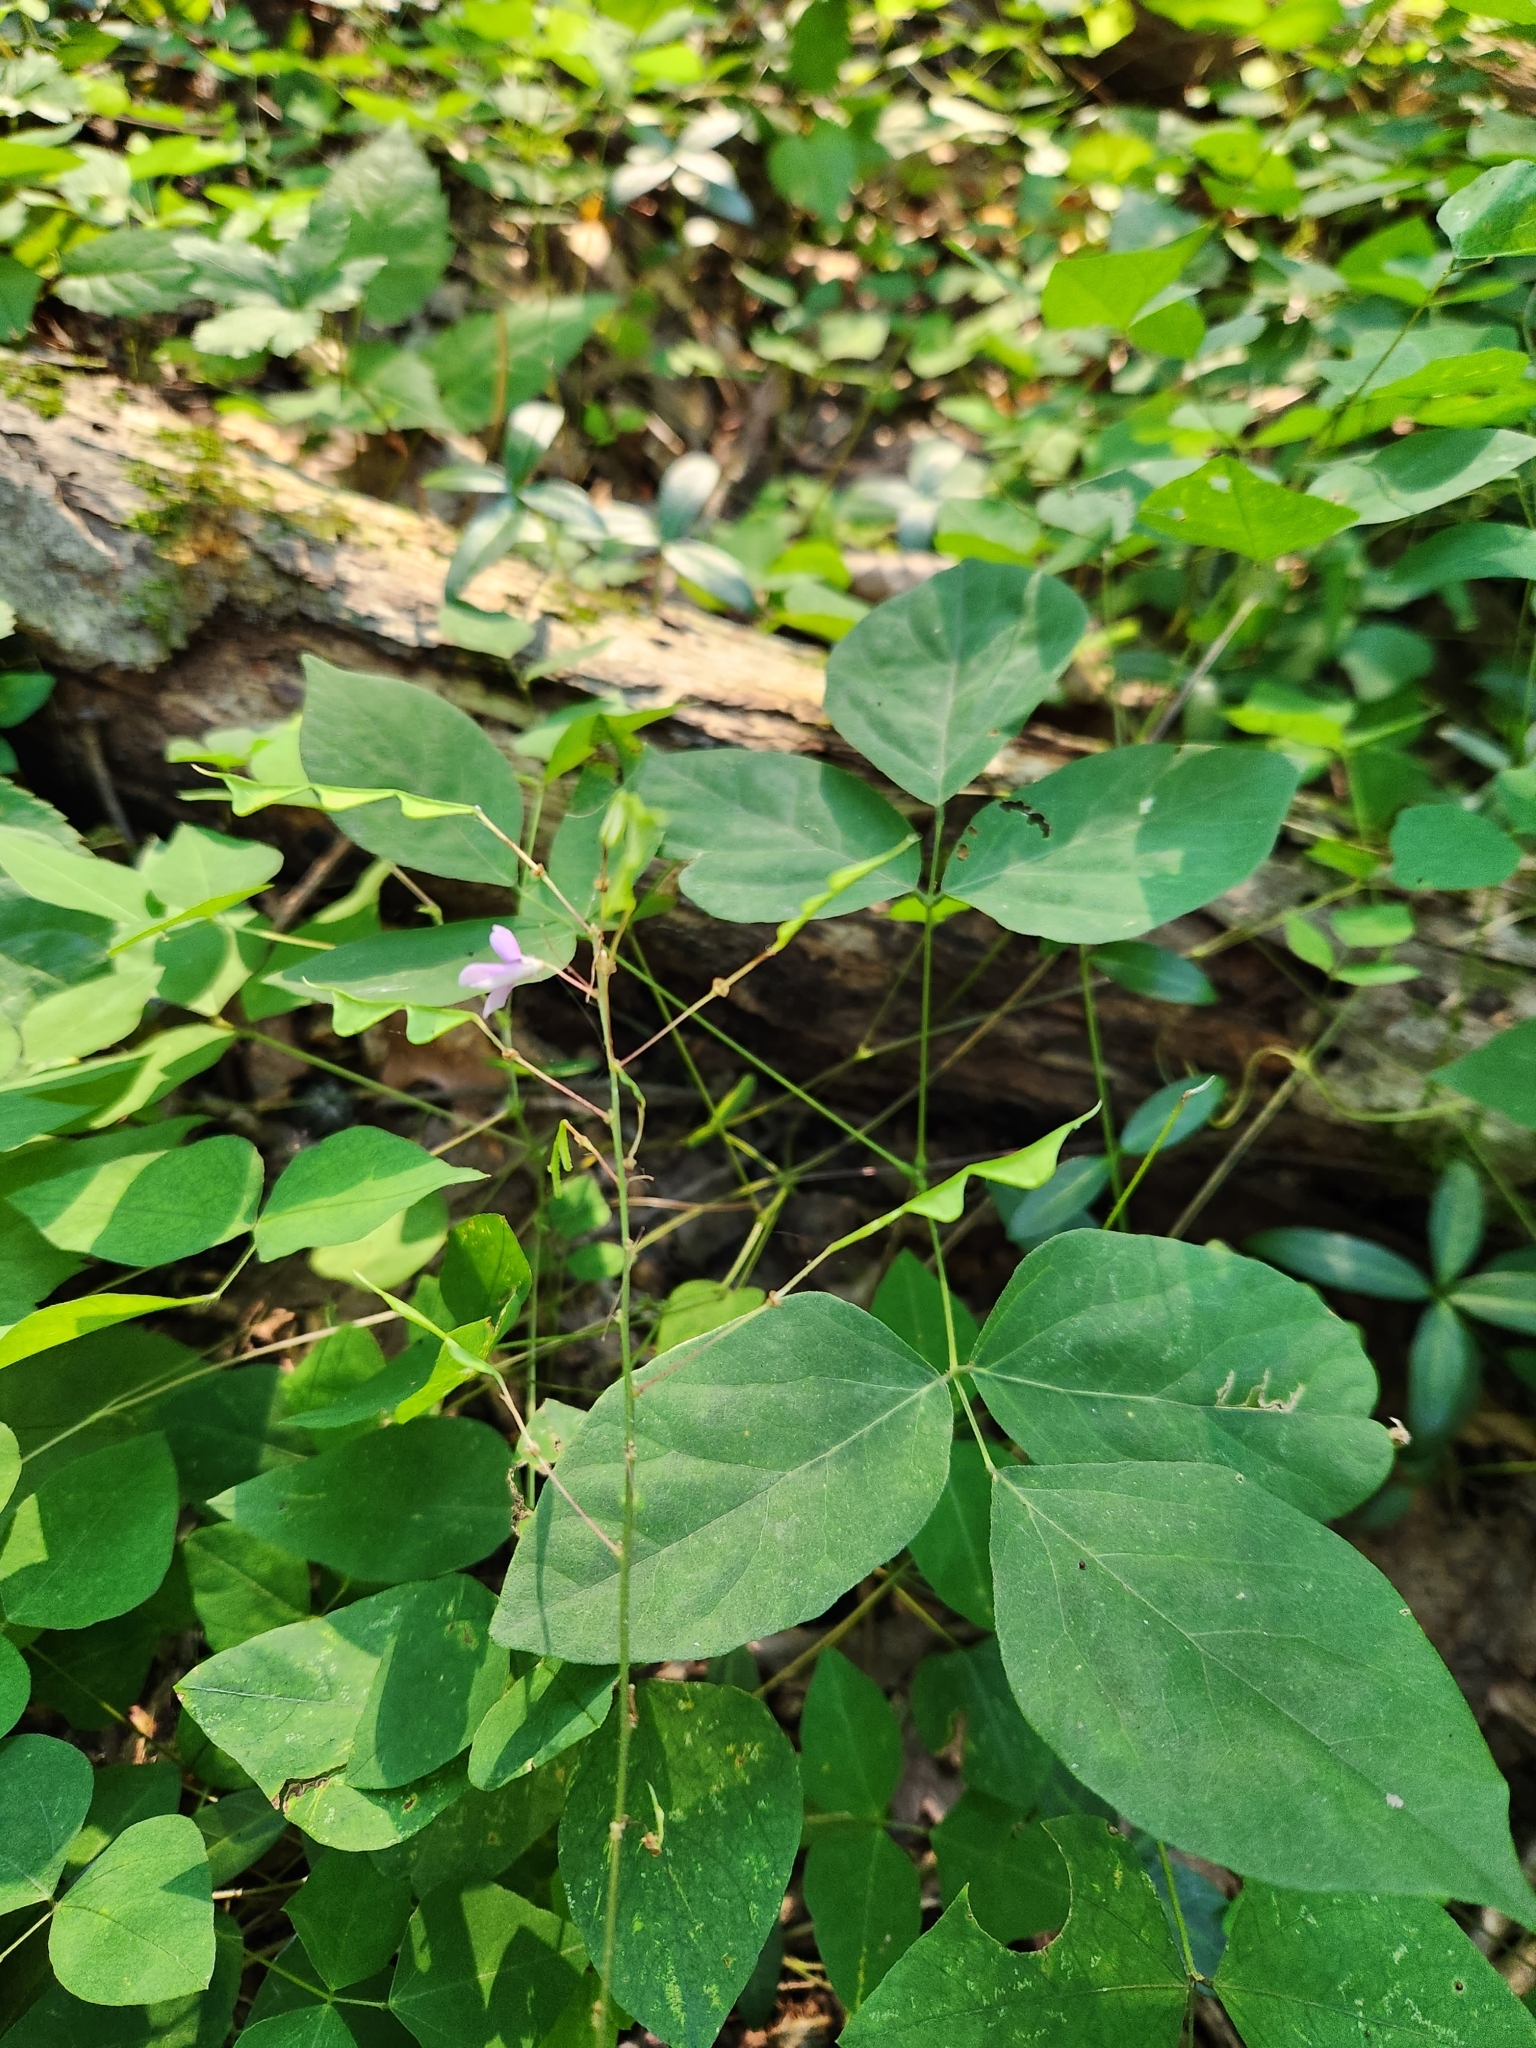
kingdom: Plantae
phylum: Tracheophyta
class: Magnoliopsida
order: Fabales
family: Fabaceae
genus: Hylodesmum
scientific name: Hylodesmum nudiflorum
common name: Bare-stemmed tick-trefoil
